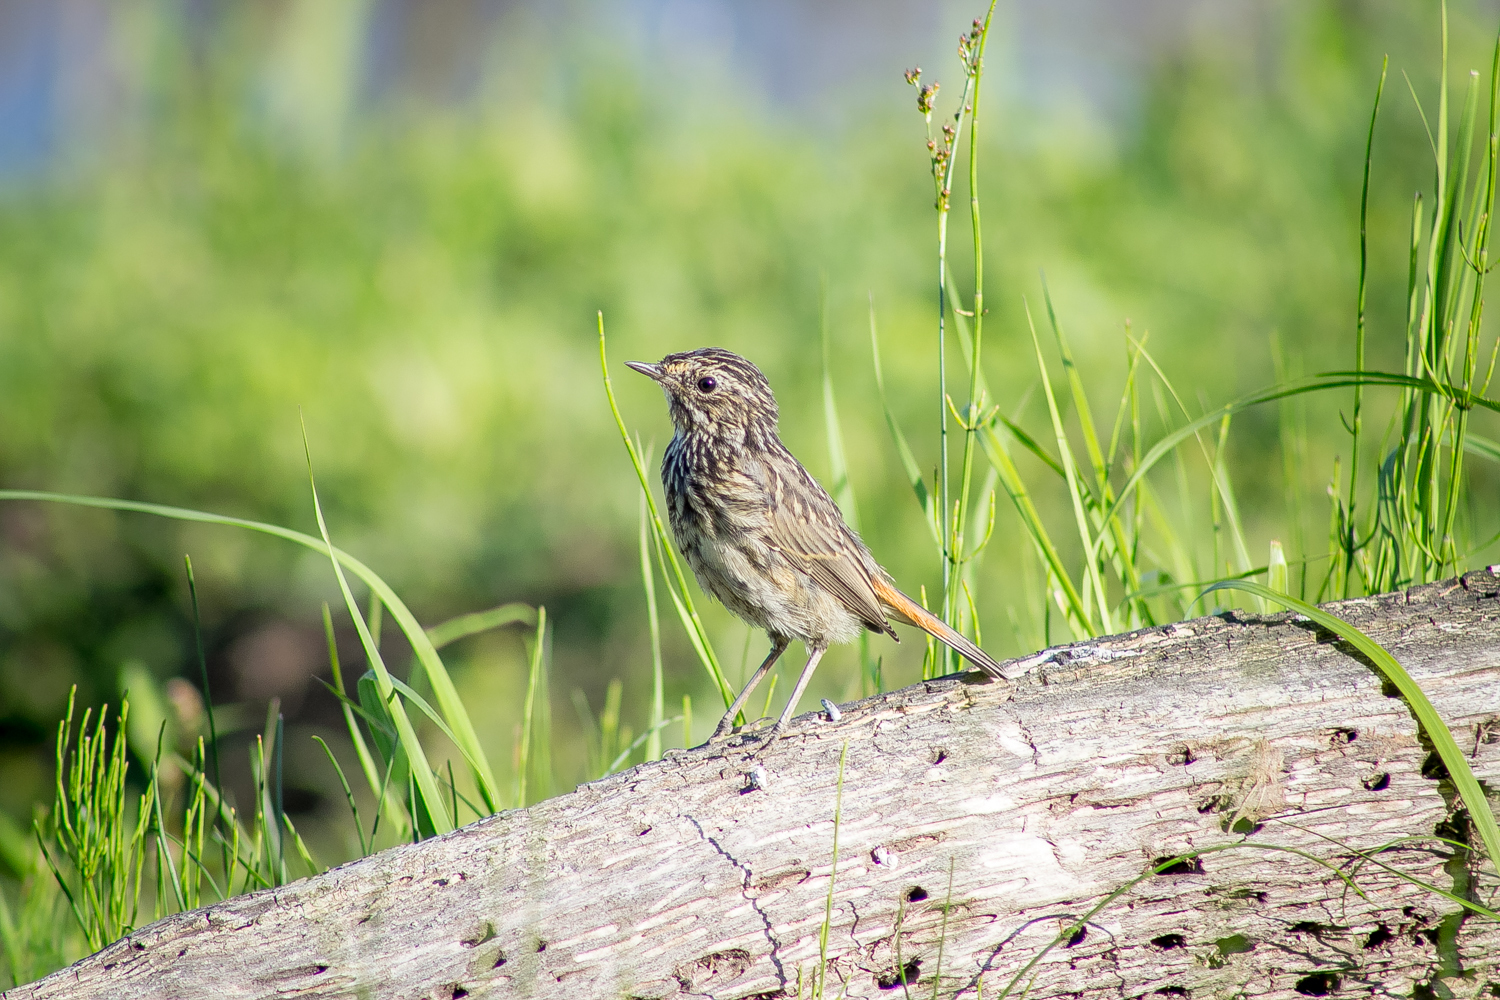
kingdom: Animalia
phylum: Chordata
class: Aves
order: Passeriformes
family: Muscicapidae
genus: Luscinia
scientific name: Luscinia svecica
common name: Bluethroat
